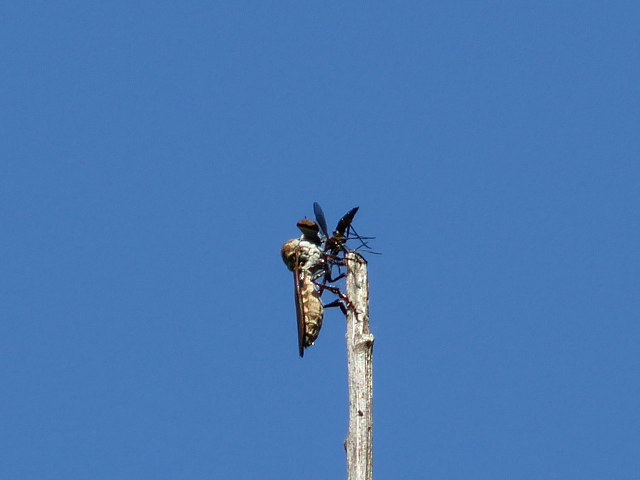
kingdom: Animalia
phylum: Arthropoda
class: Insecta
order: Diptera
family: Asilidae
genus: Holcocephala
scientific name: Holcocephala calva
